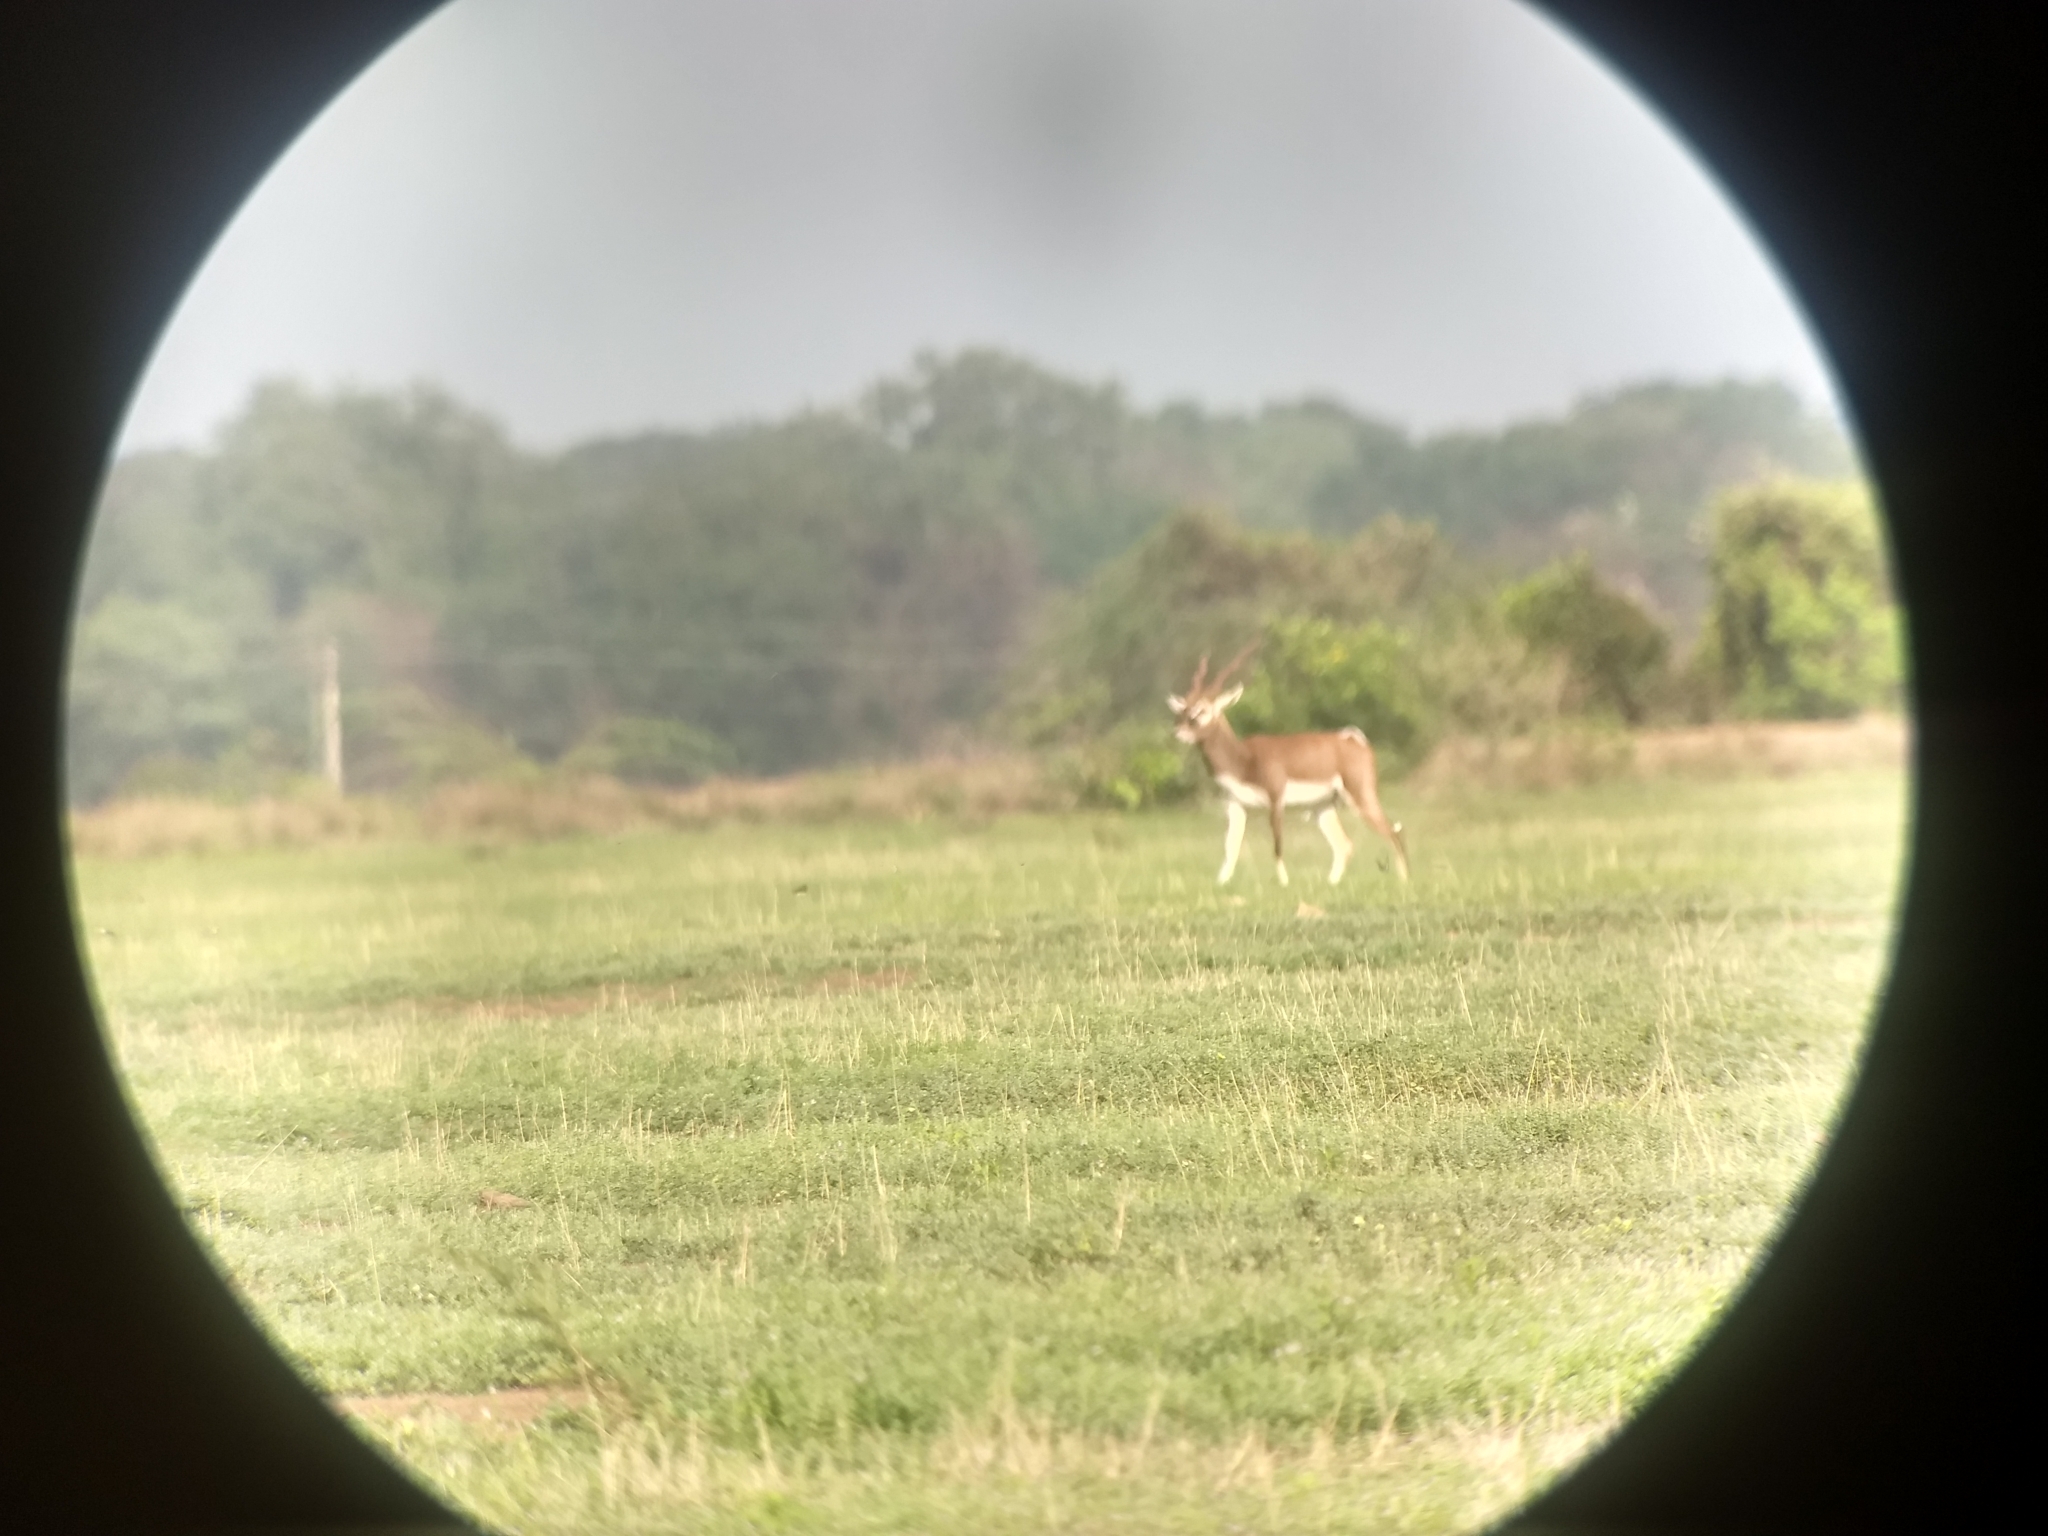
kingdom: Animalia
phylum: Chordata
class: Mammalia
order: Artiodactyla
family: Bovidae
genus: Antilope
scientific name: Antilope cervicapra
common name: Blackbuck
